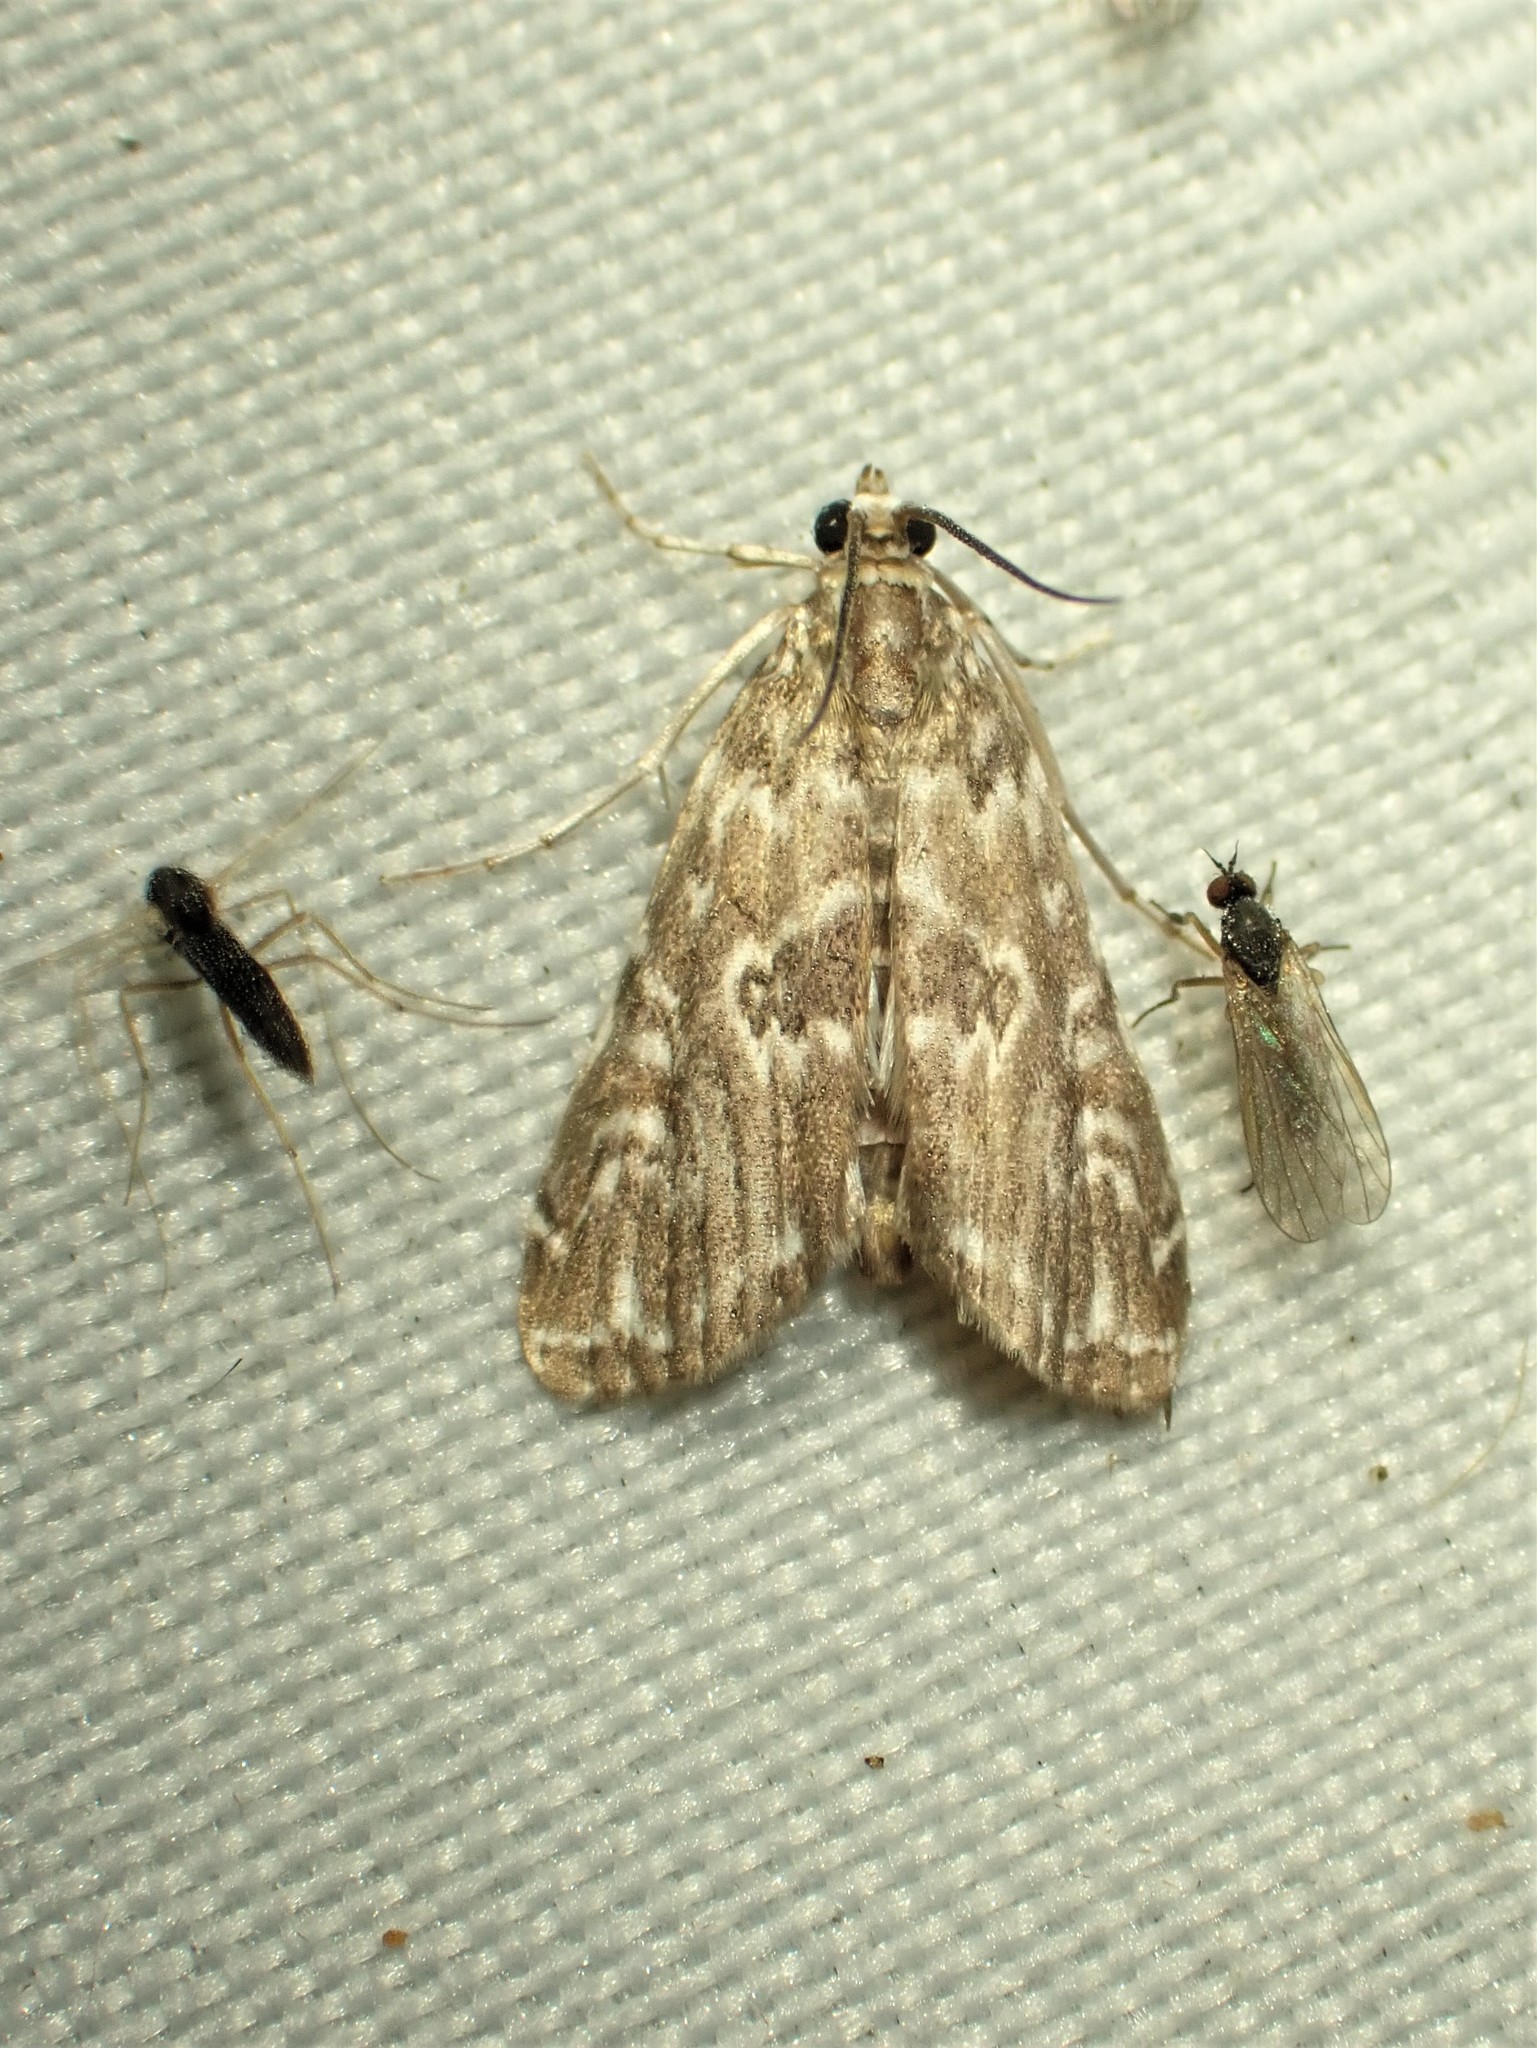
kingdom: Animalia
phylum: Arthropoda
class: Insecta
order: Lepidoptera
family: Crambidae
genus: Elophila
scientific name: Elophila gyralis
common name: Waterlily borer moth
